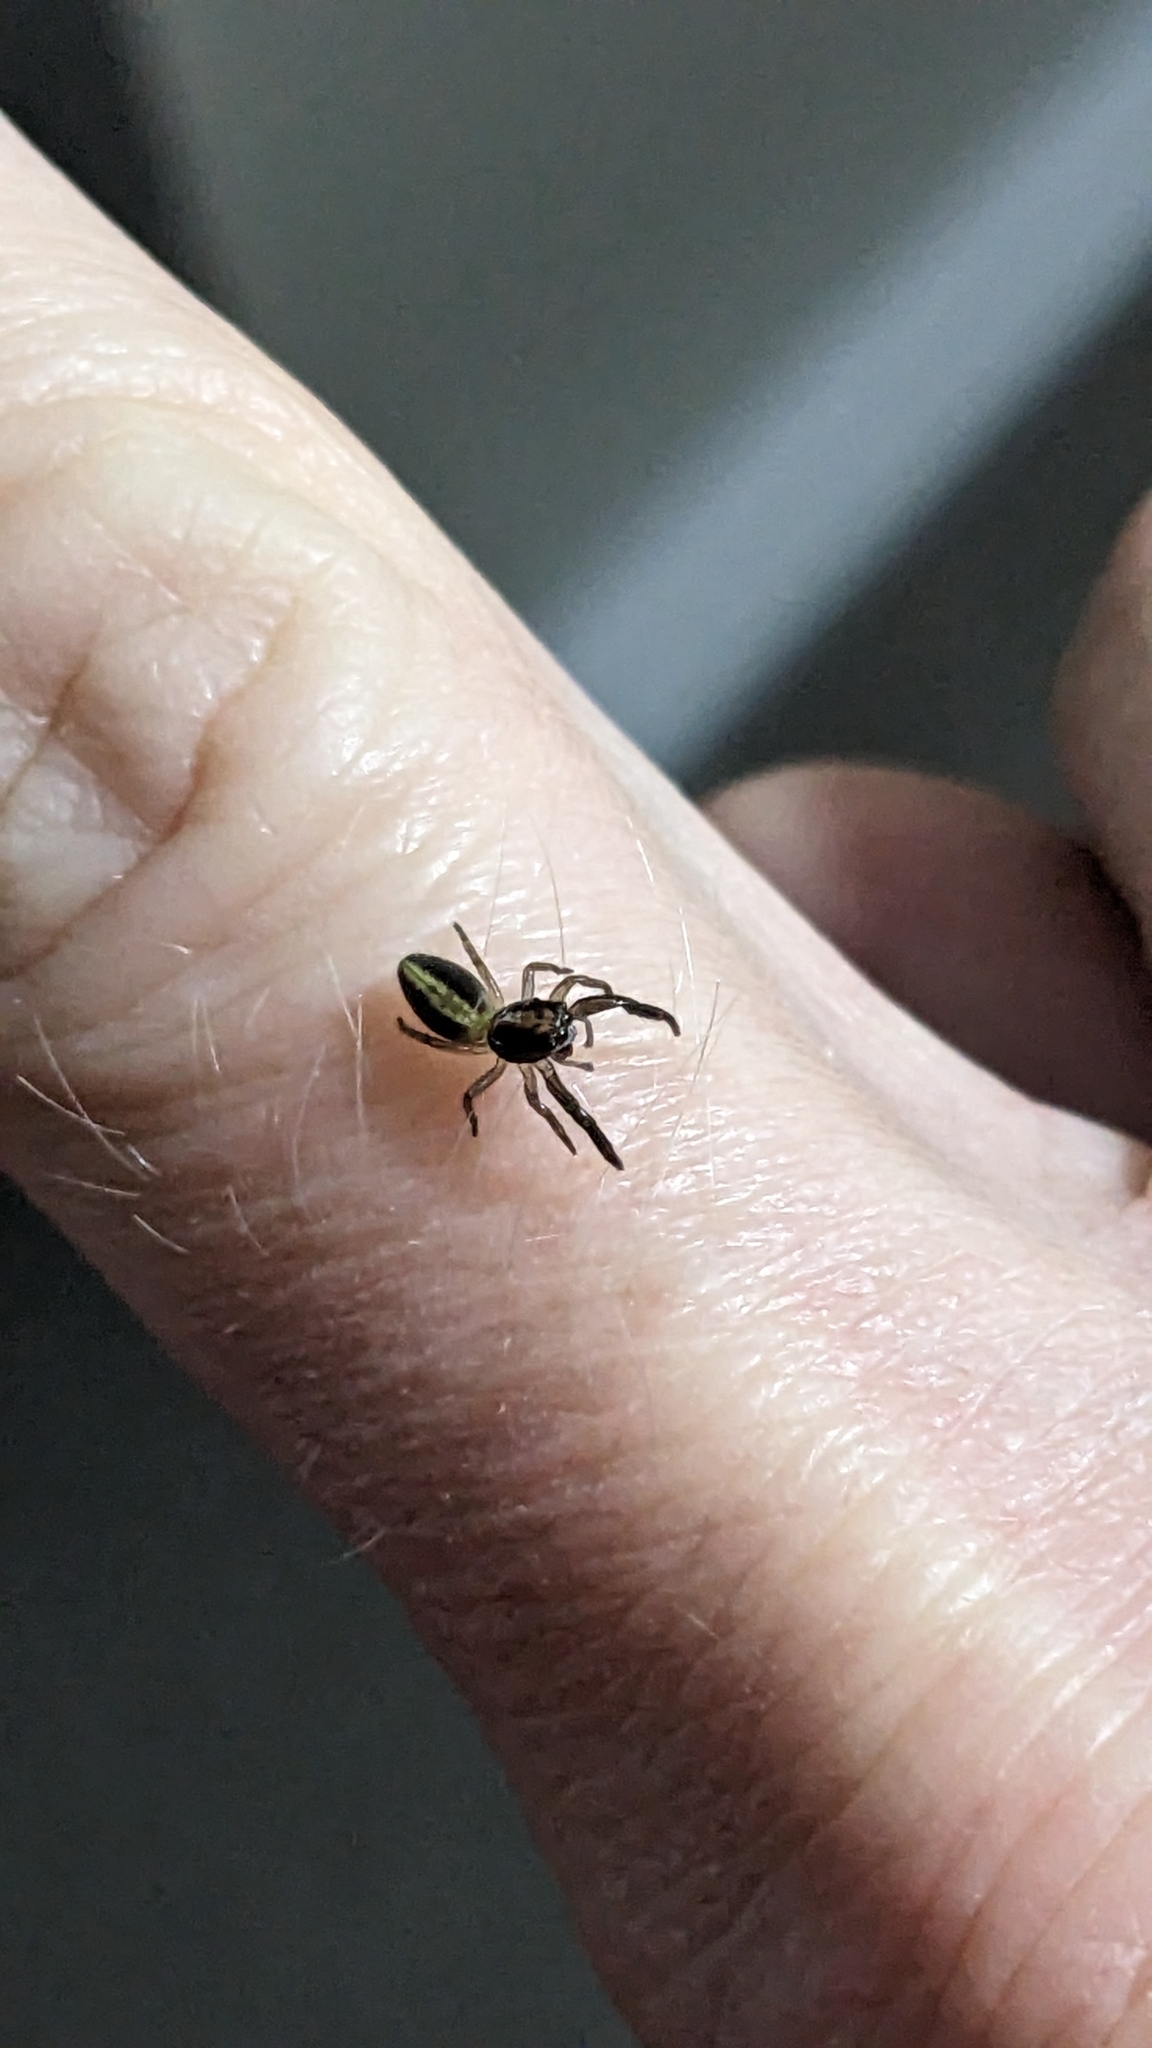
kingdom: Animalia
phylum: Arthropoda
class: Arachnida
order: Araneae
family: Salticidae
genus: Trite
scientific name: Trite planiceps
